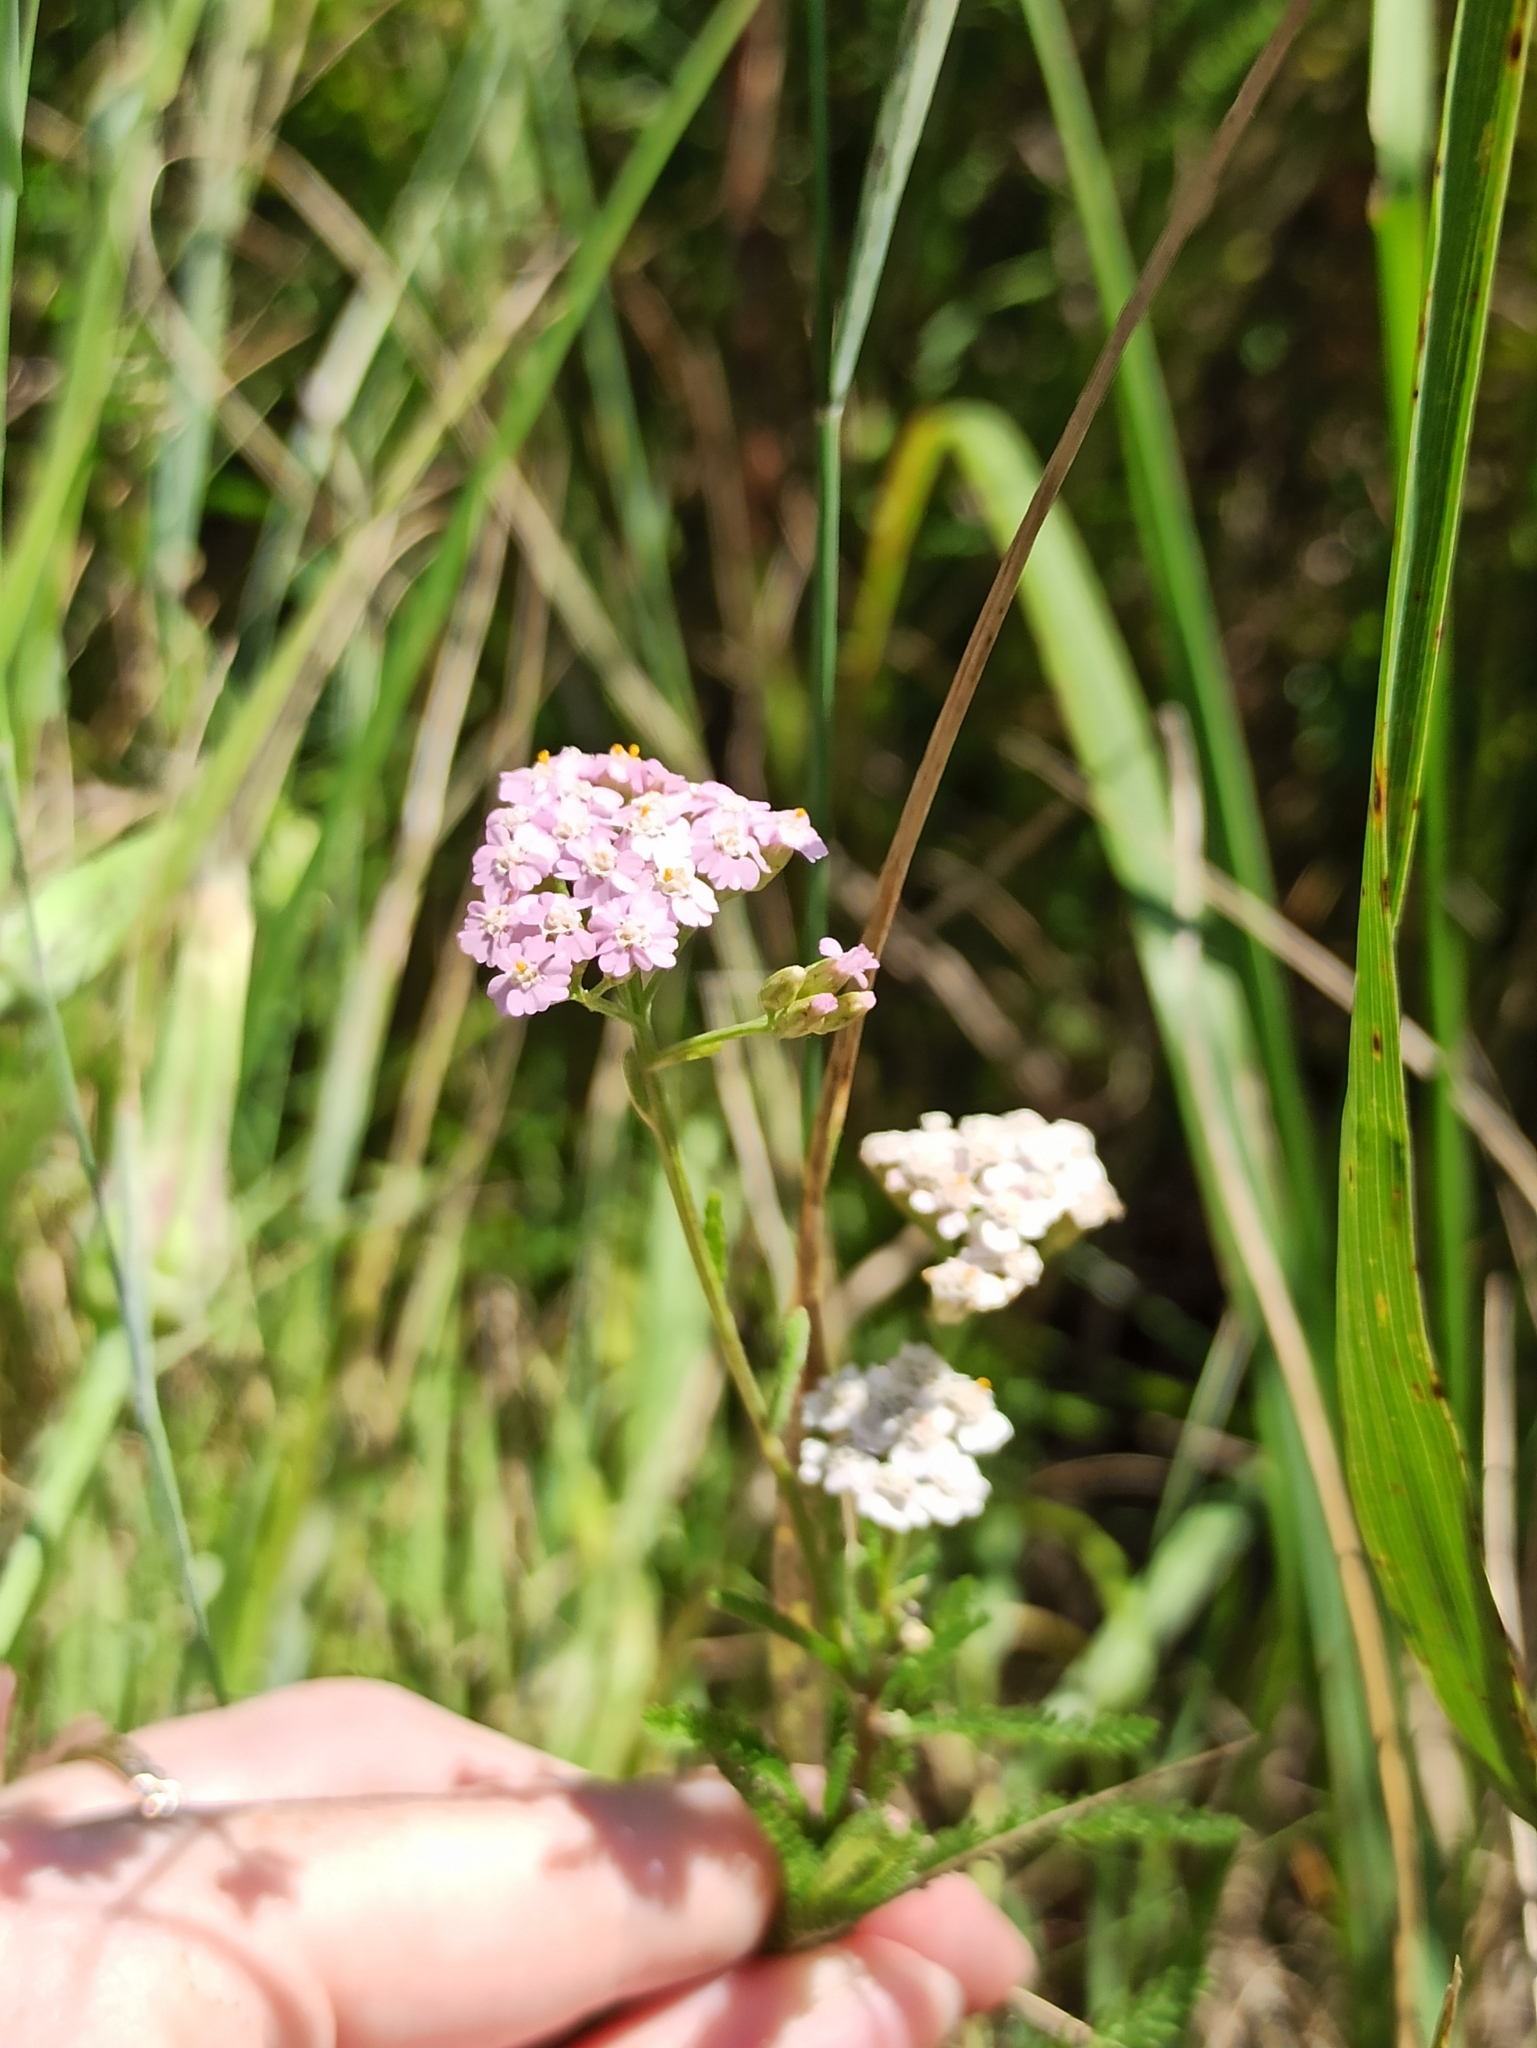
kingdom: Plantae
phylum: Tracheophyta
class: Magnoliopsida
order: Asterales
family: Asteraceae
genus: Achillea
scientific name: Achillea millefolium
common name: Yarrow
